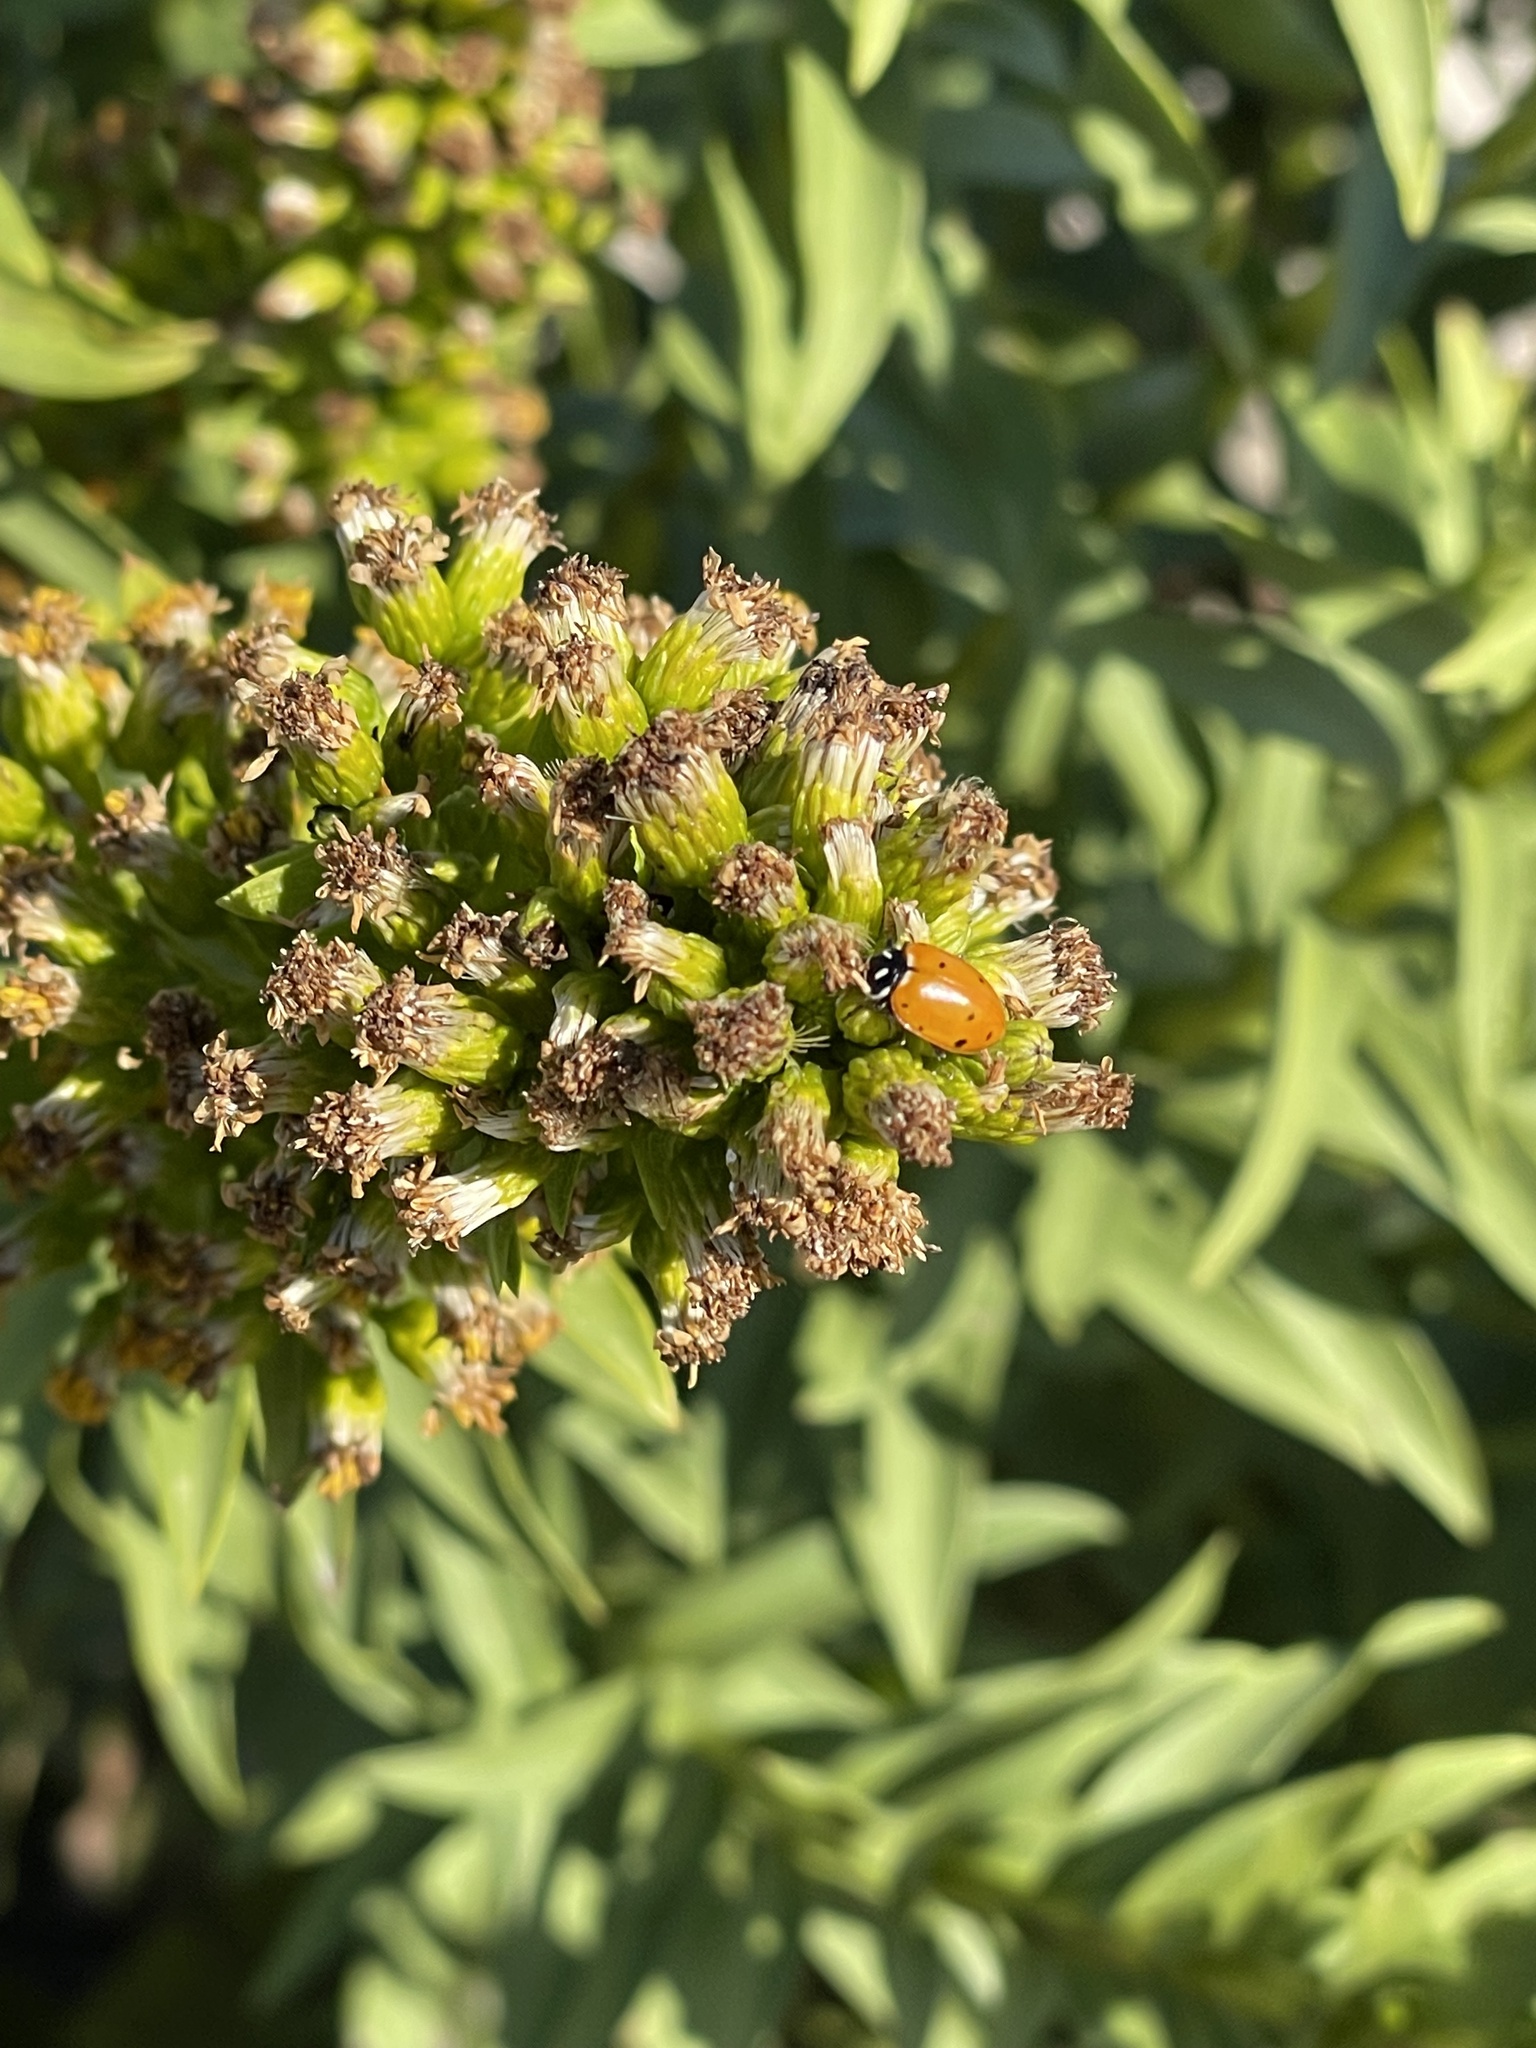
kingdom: Animalia
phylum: Arthropoda
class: Insecta
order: Coleoptera
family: Coccinellidae
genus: Hippodamia
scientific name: Hippodamia convergens
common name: Convergent lady beetle
